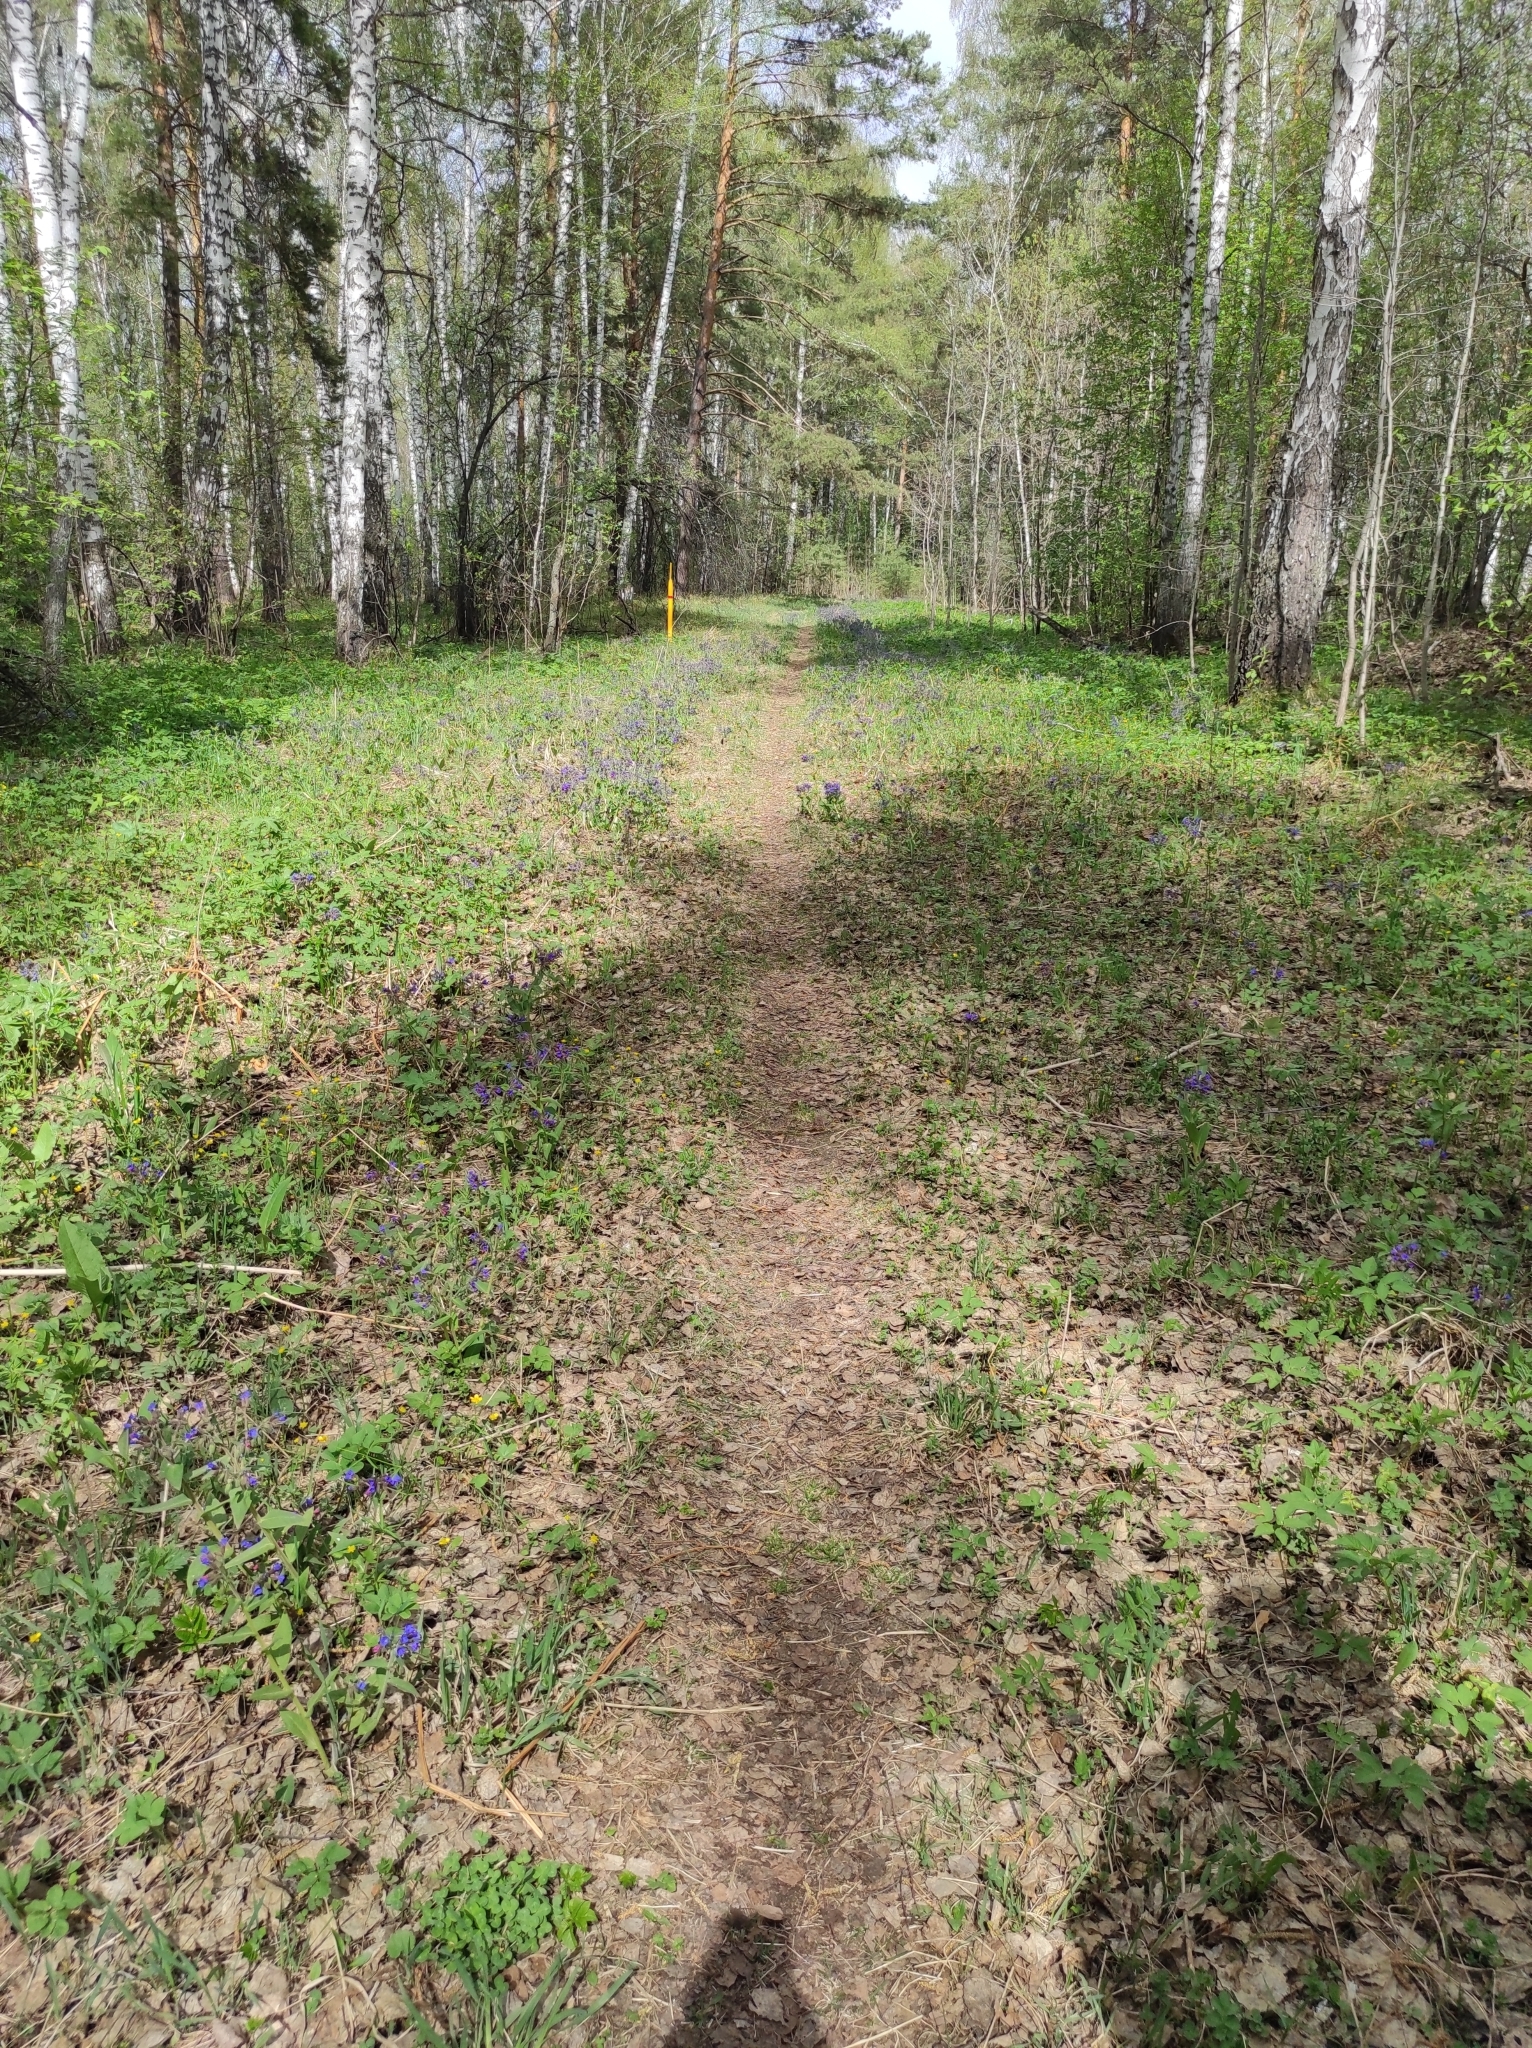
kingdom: Plantae
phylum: Tracheophyta
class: Pinopsida
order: Pinales
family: Pinaceae
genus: Pinus
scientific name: Pinus sylvestris
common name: Scots pine
